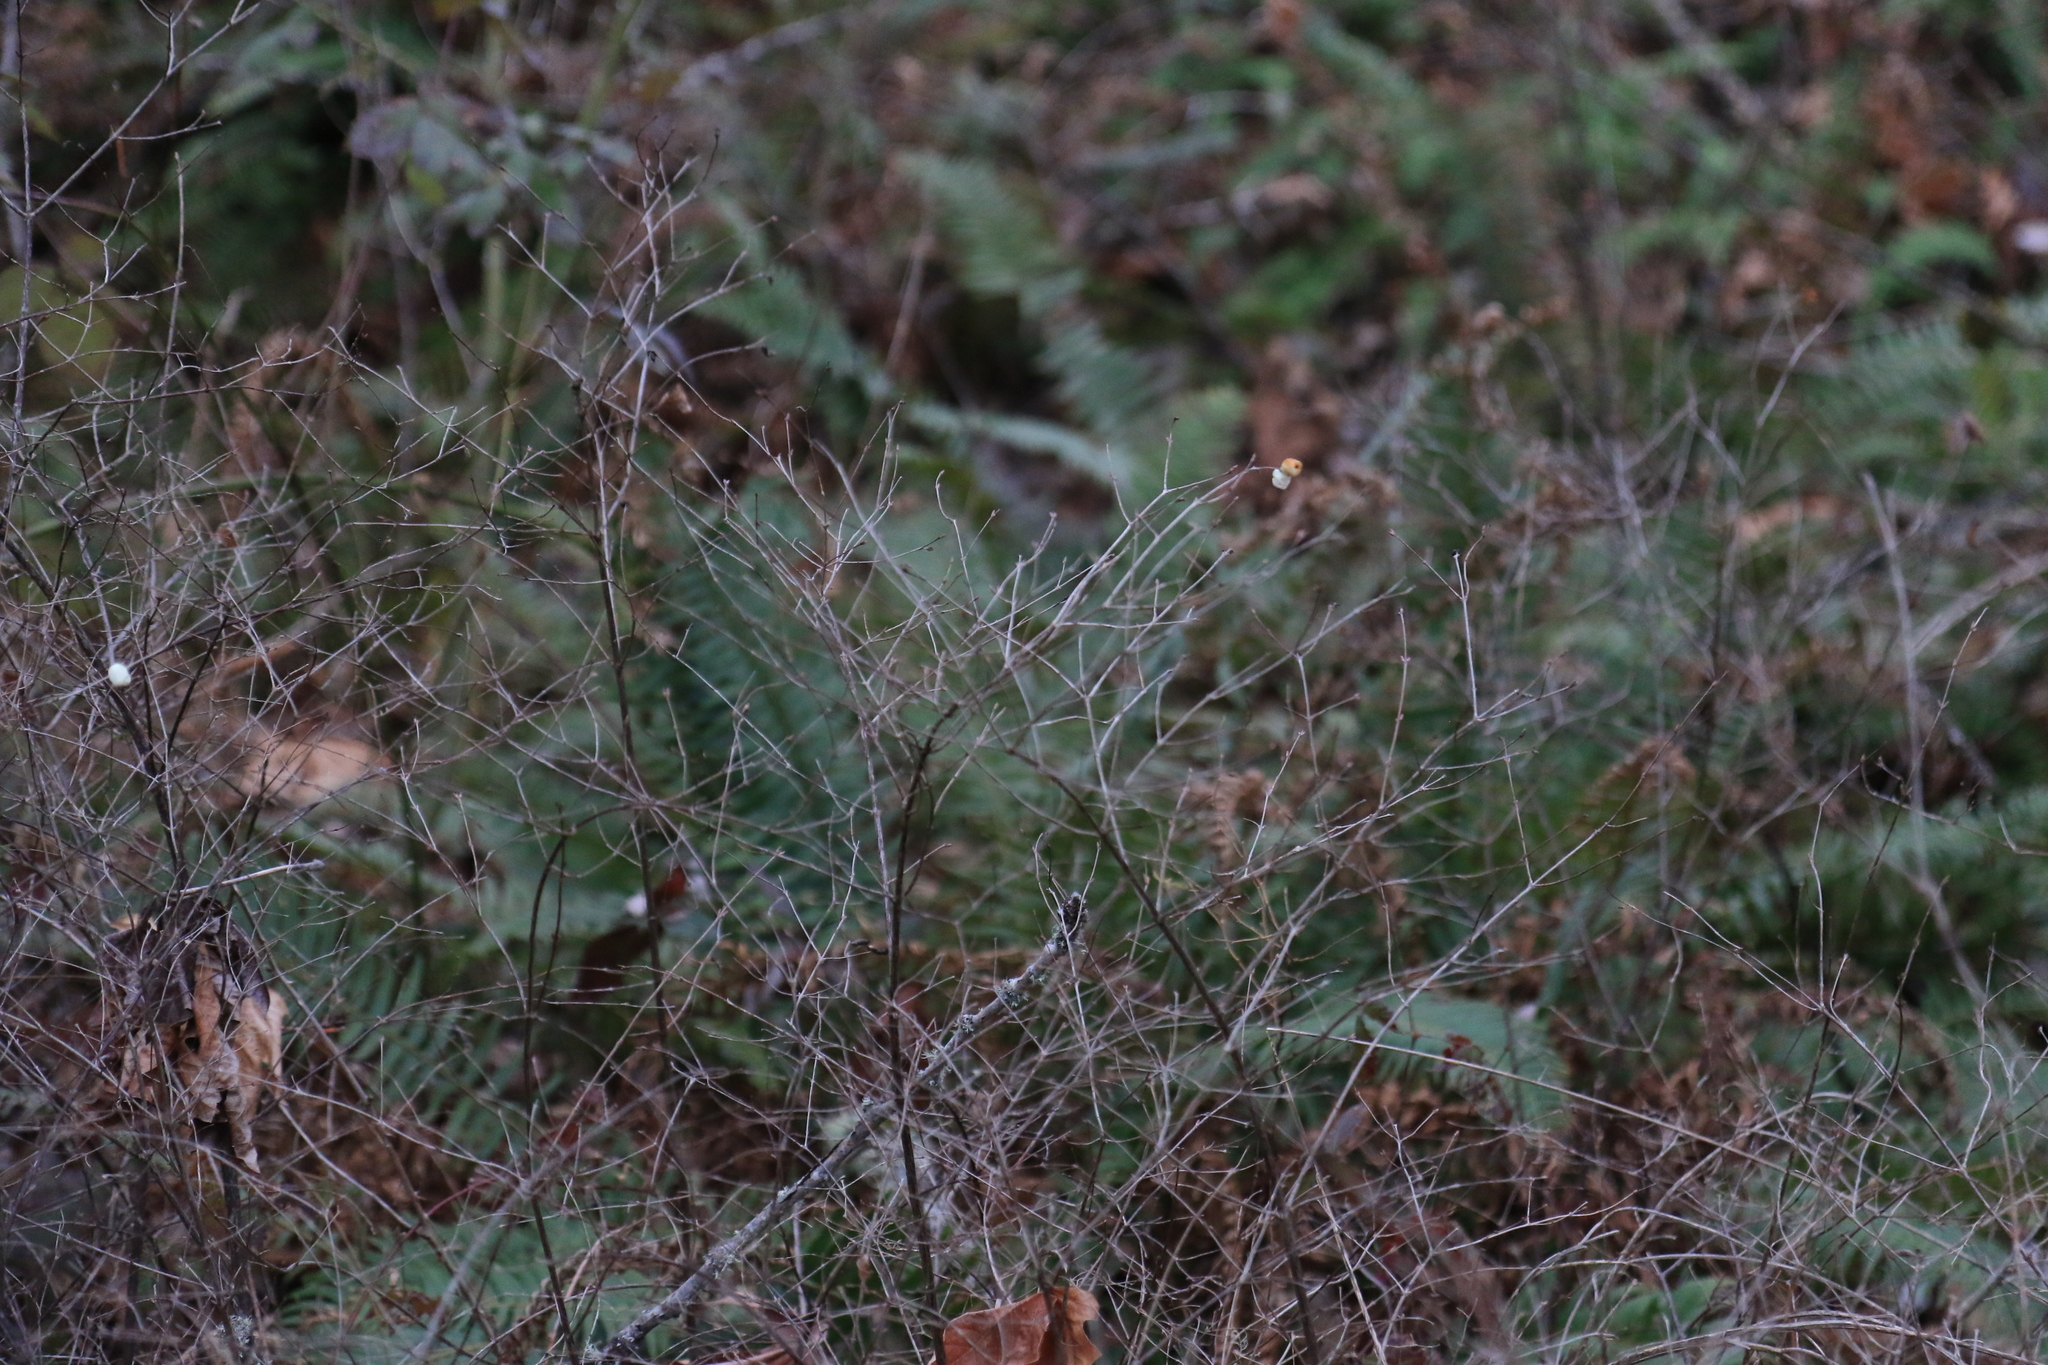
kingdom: Plantae
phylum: Tracheophyta
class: Magnoliopsida
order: Dipsacales
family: Caprifoliaceae
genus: Symphoricarpos
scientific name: Symphoricarpos albus
